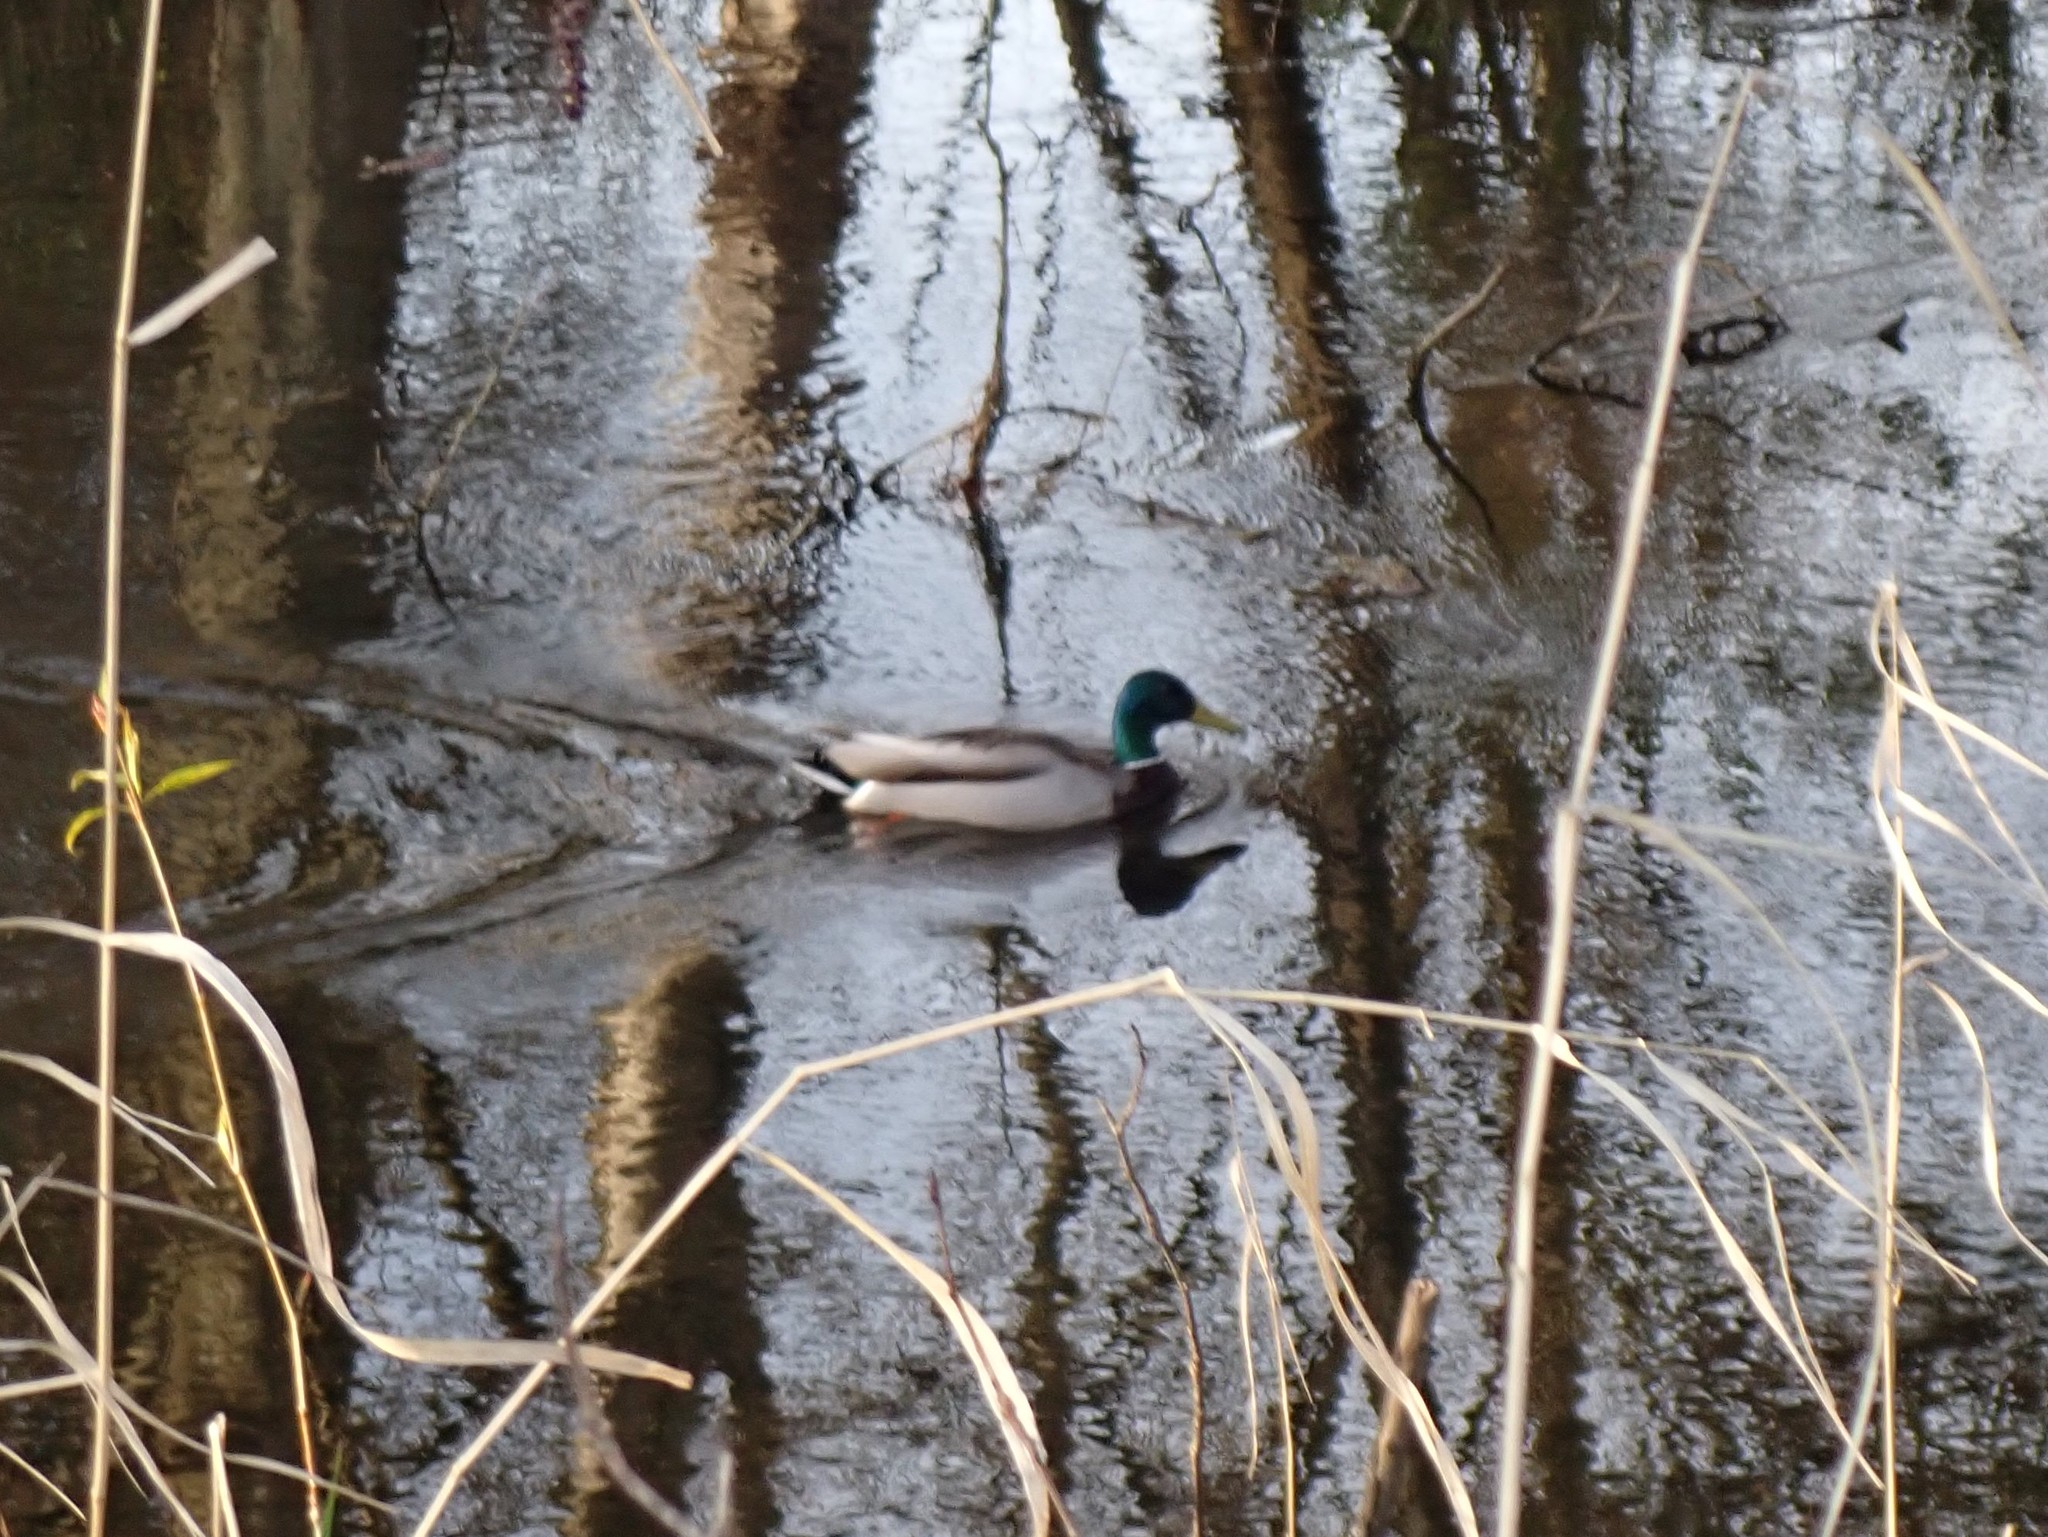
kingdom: Animalia
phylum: Chordata
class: Aves
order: Anseriformes
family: Anatidae
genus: Anas
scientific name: Anas platyrhynchos
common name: Mallard
